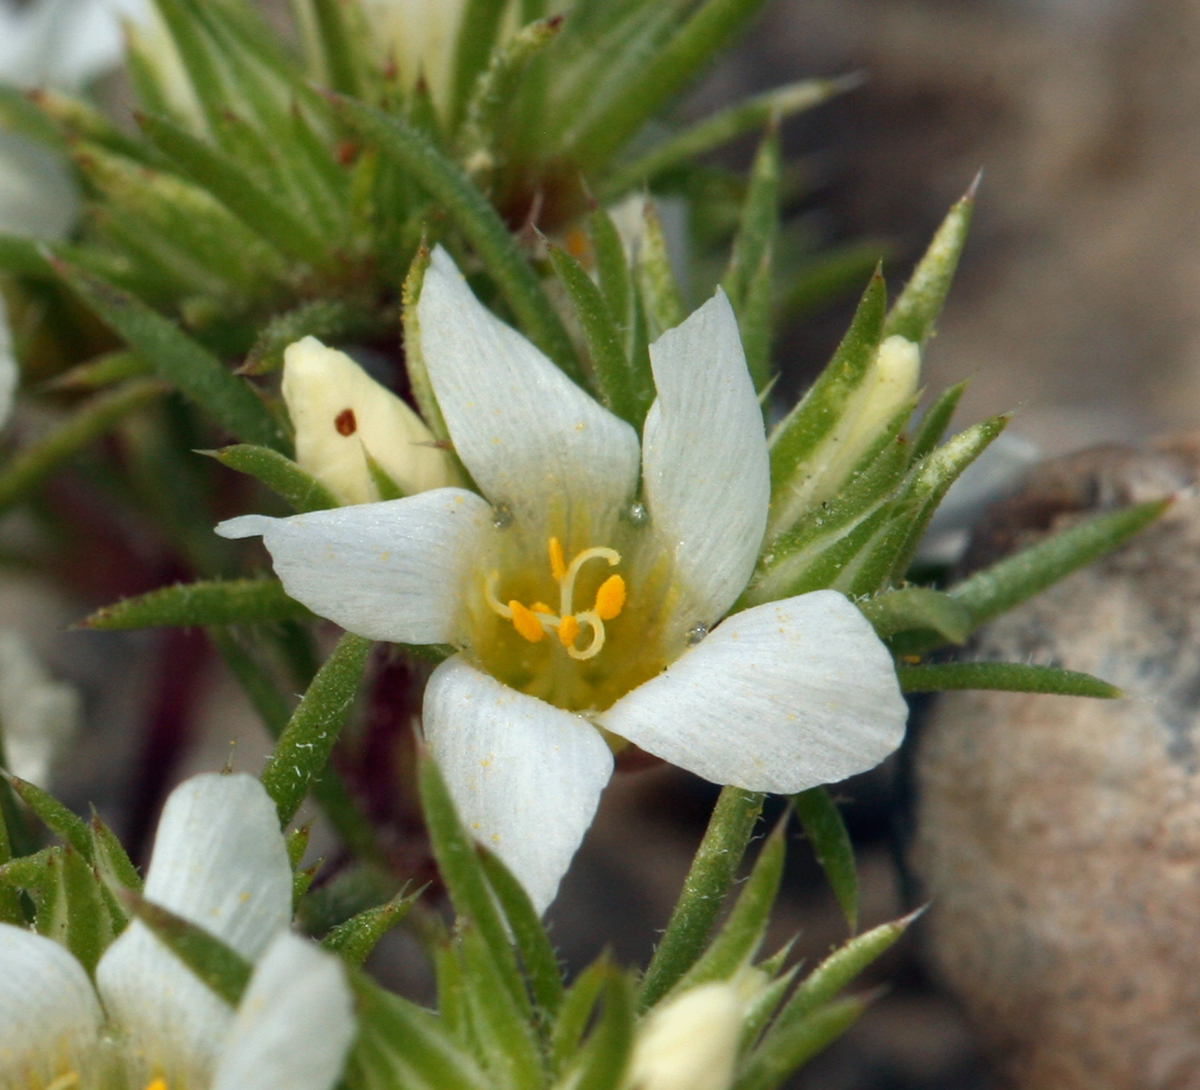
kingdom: Plantae
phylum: Tracheophyta
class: Magnoliopsida
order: Ericales
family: Polemoniaceae
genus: Linanthus
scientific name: Linanthus demissus
